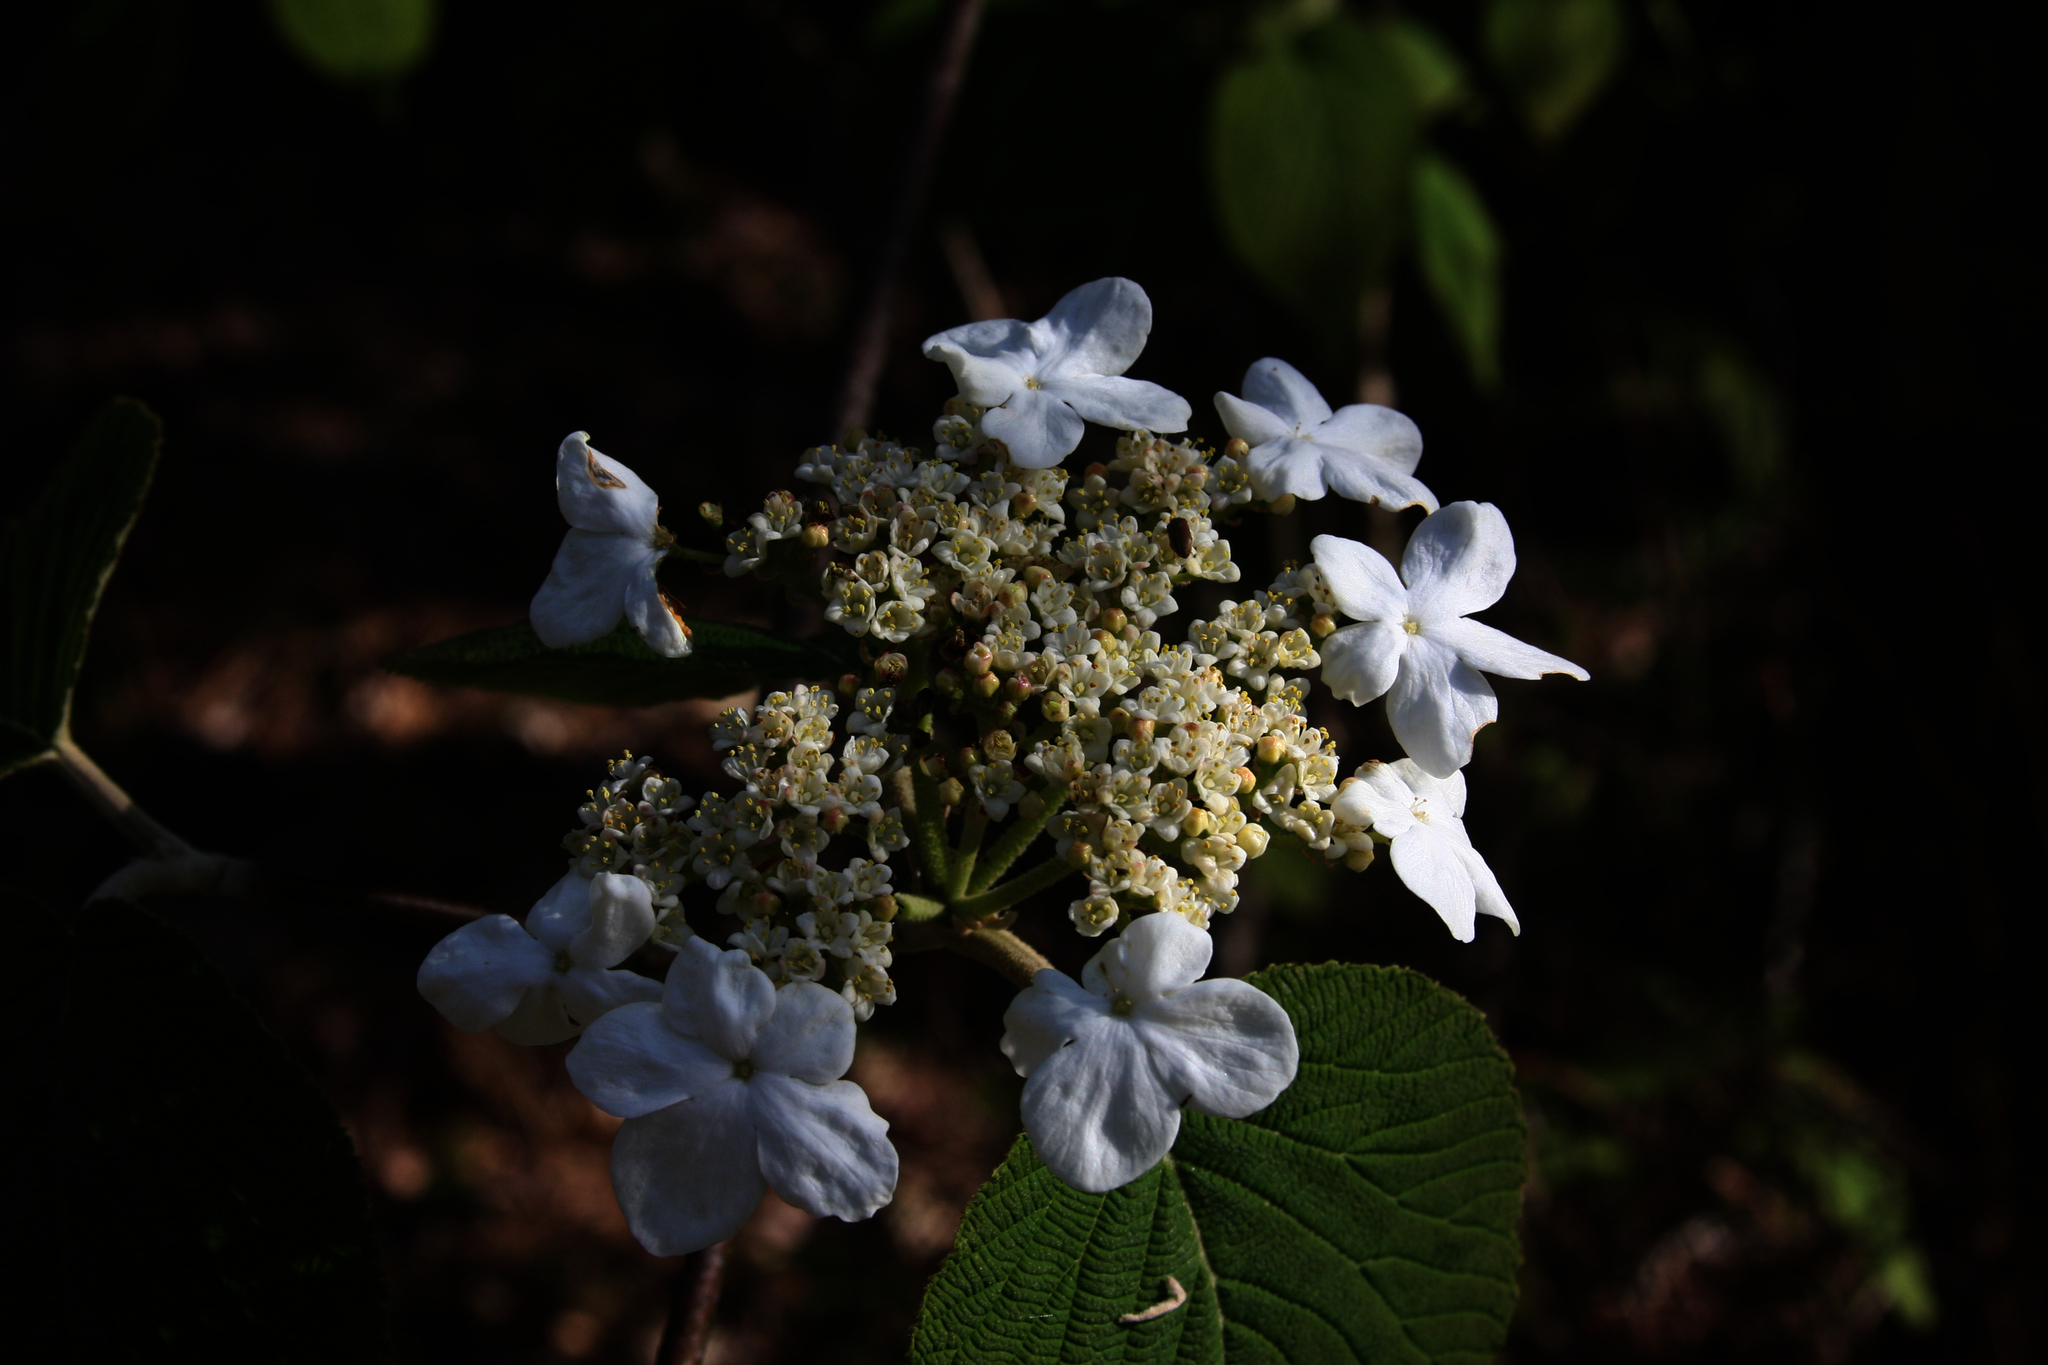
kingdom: Plantae
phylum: Tracheophyta
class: Magnoliopsida
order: Dipsacales
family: Viburnaceae
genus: Viburnum
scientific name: Viburnum lantanoides
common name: Hobblebush
